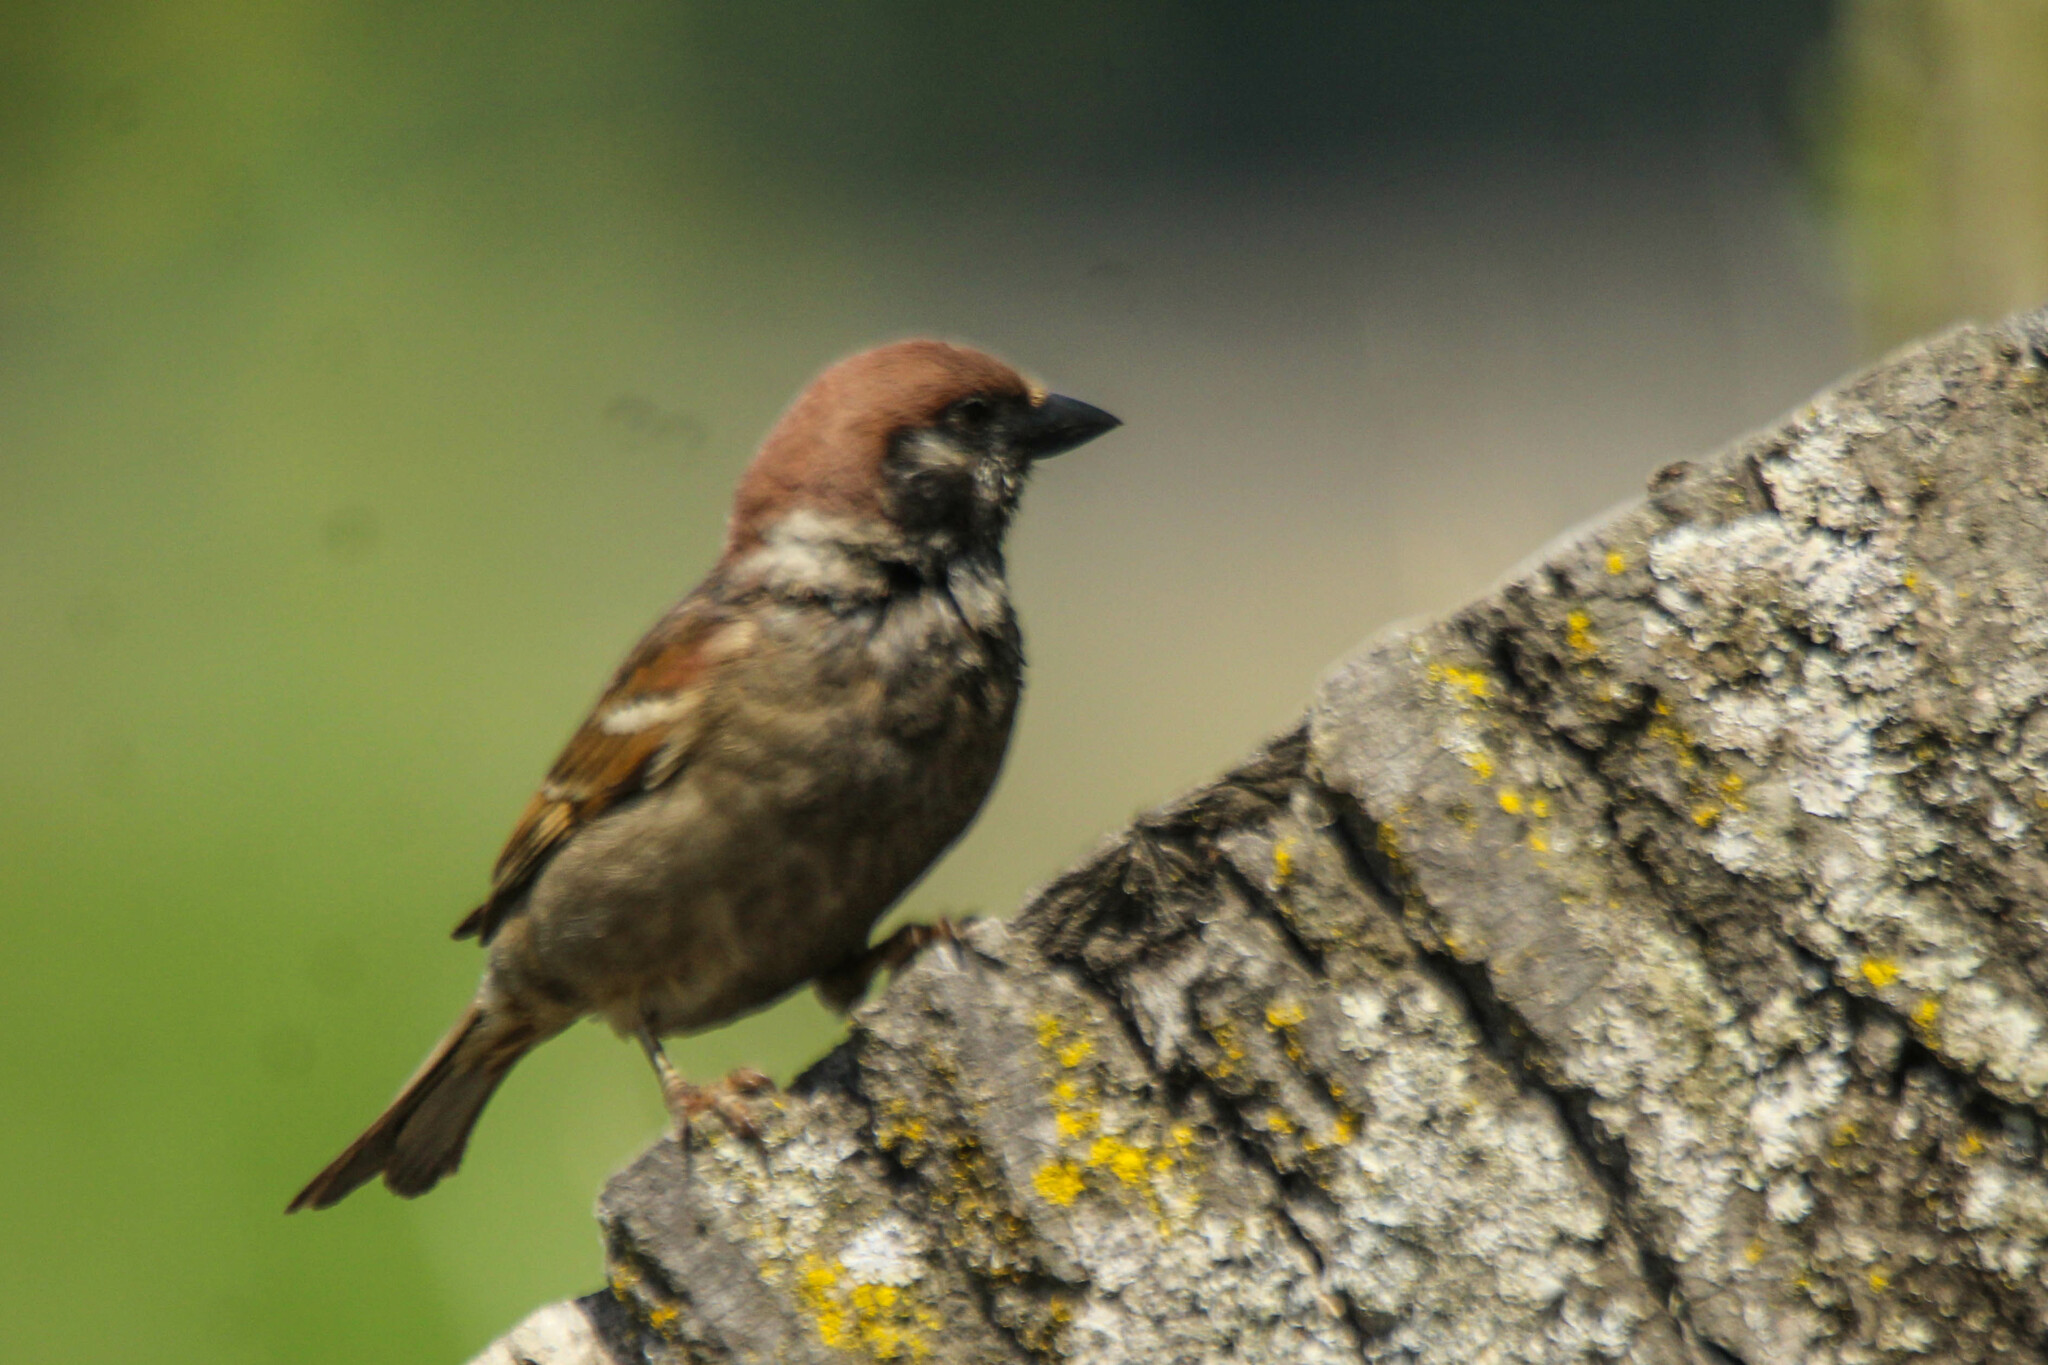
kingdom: Animalia
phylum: Chordata
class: Aves
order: Passeriformes
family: Passeridae
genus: Passer
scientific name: Passer montanus
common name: Eurasian tree sparrow
